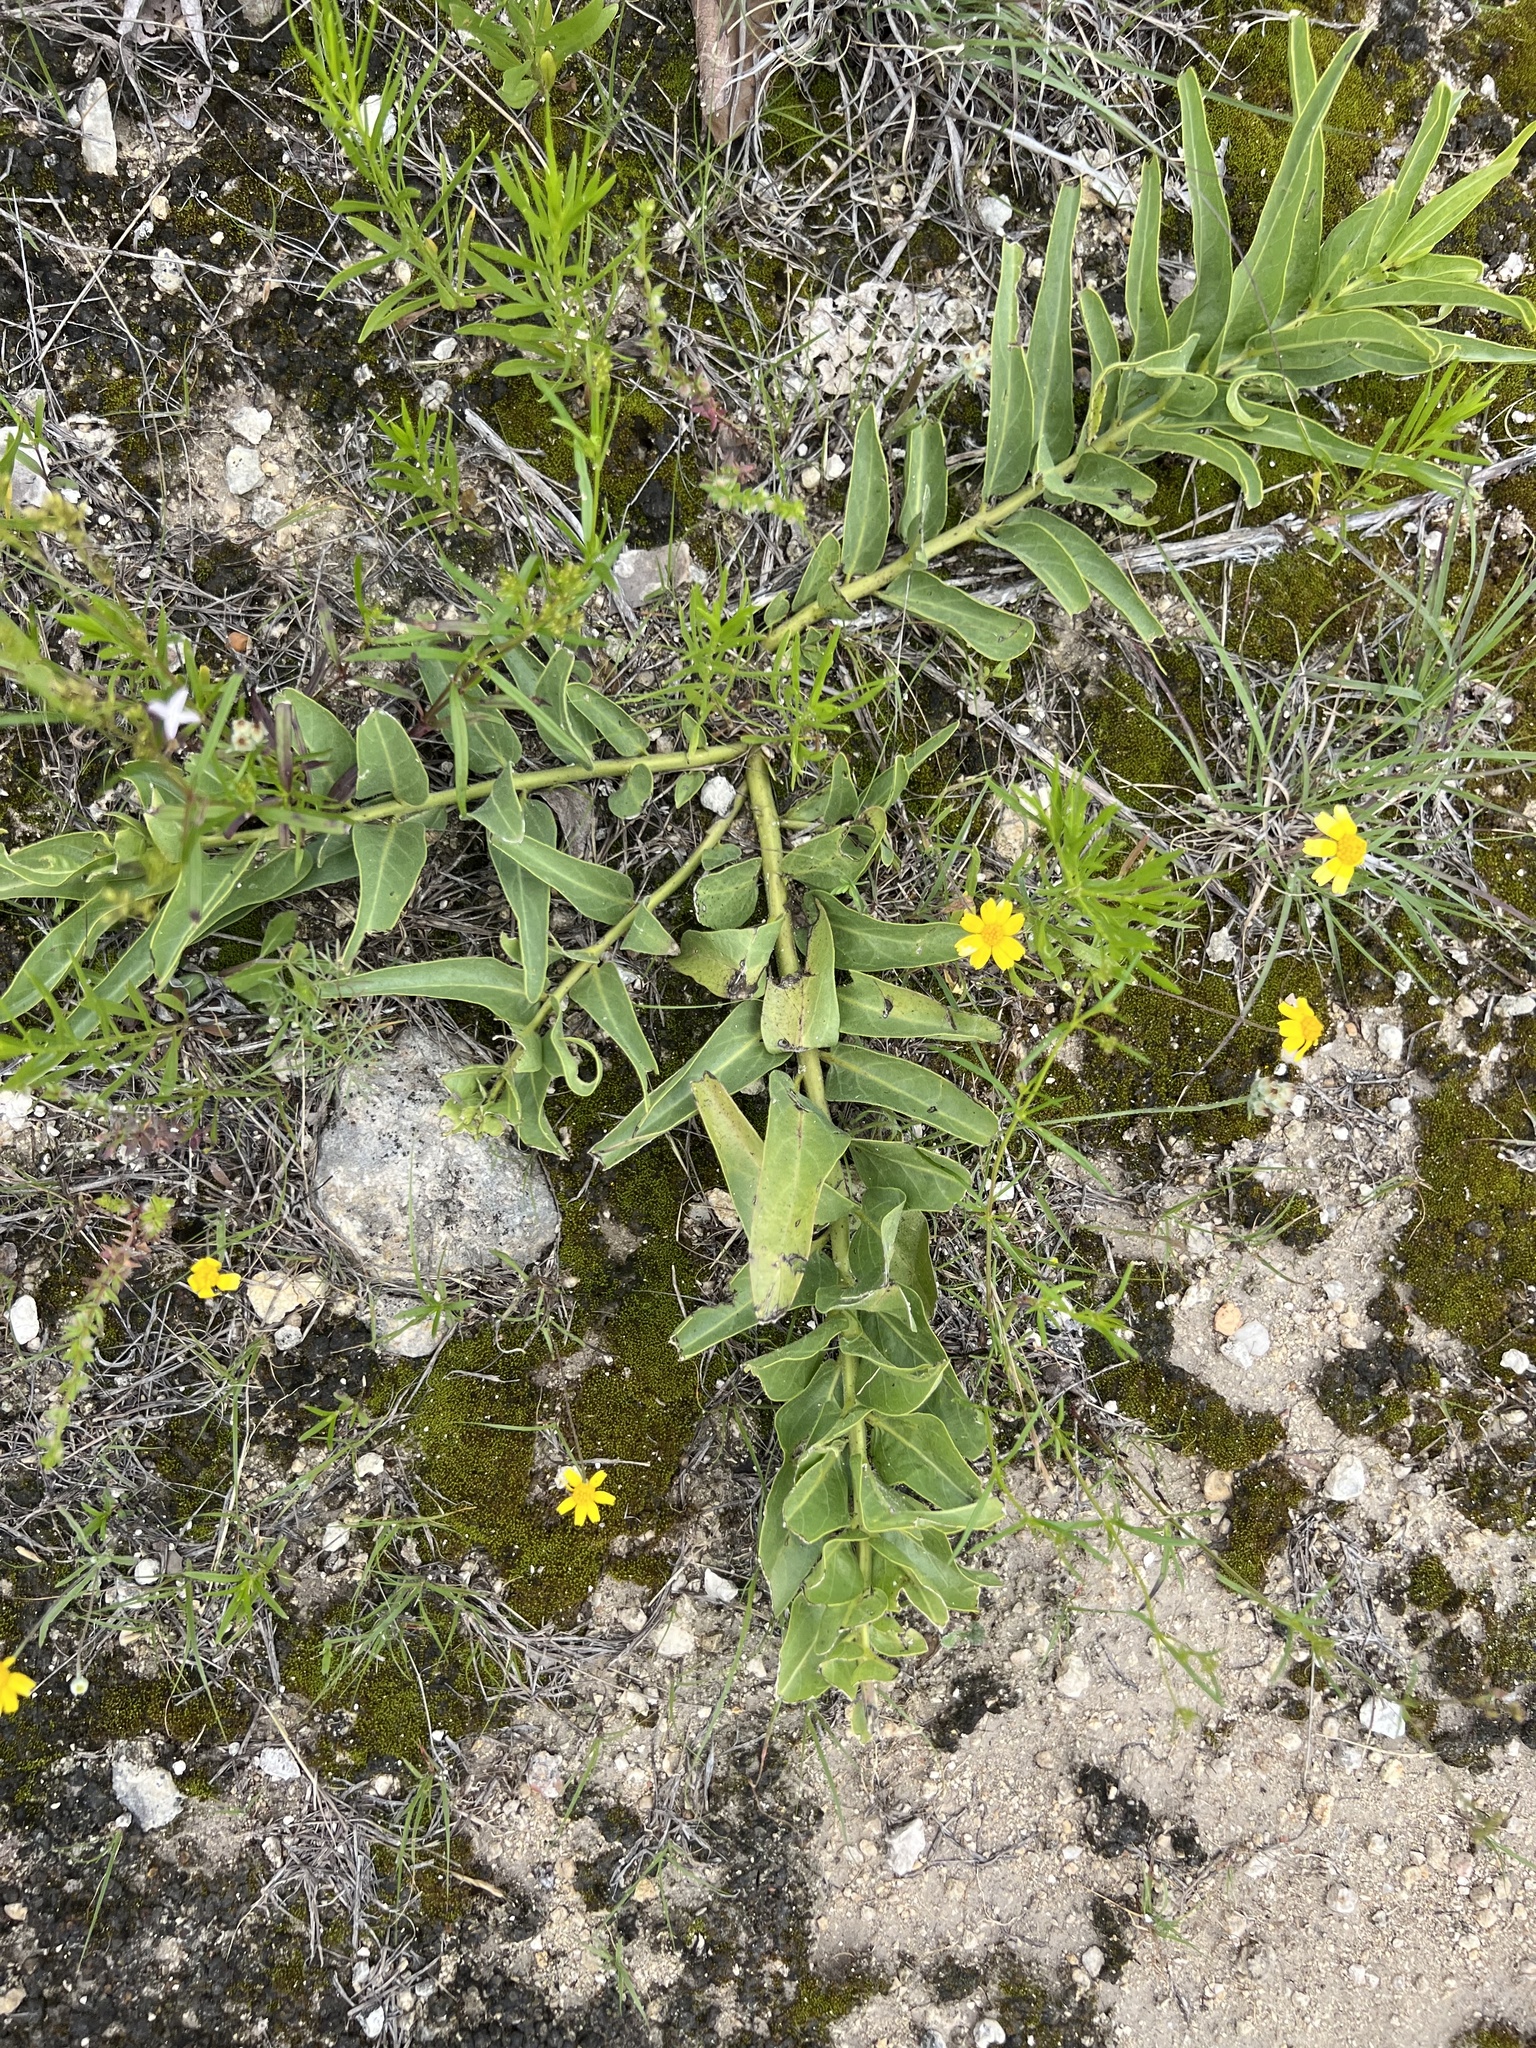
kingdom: Plantae
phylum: Tracheophyta
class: Magnoliopsida
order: Gentianales
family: Apocynaceae
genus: Asclepias
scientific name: Asclepias asperula
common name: Antelope horns
